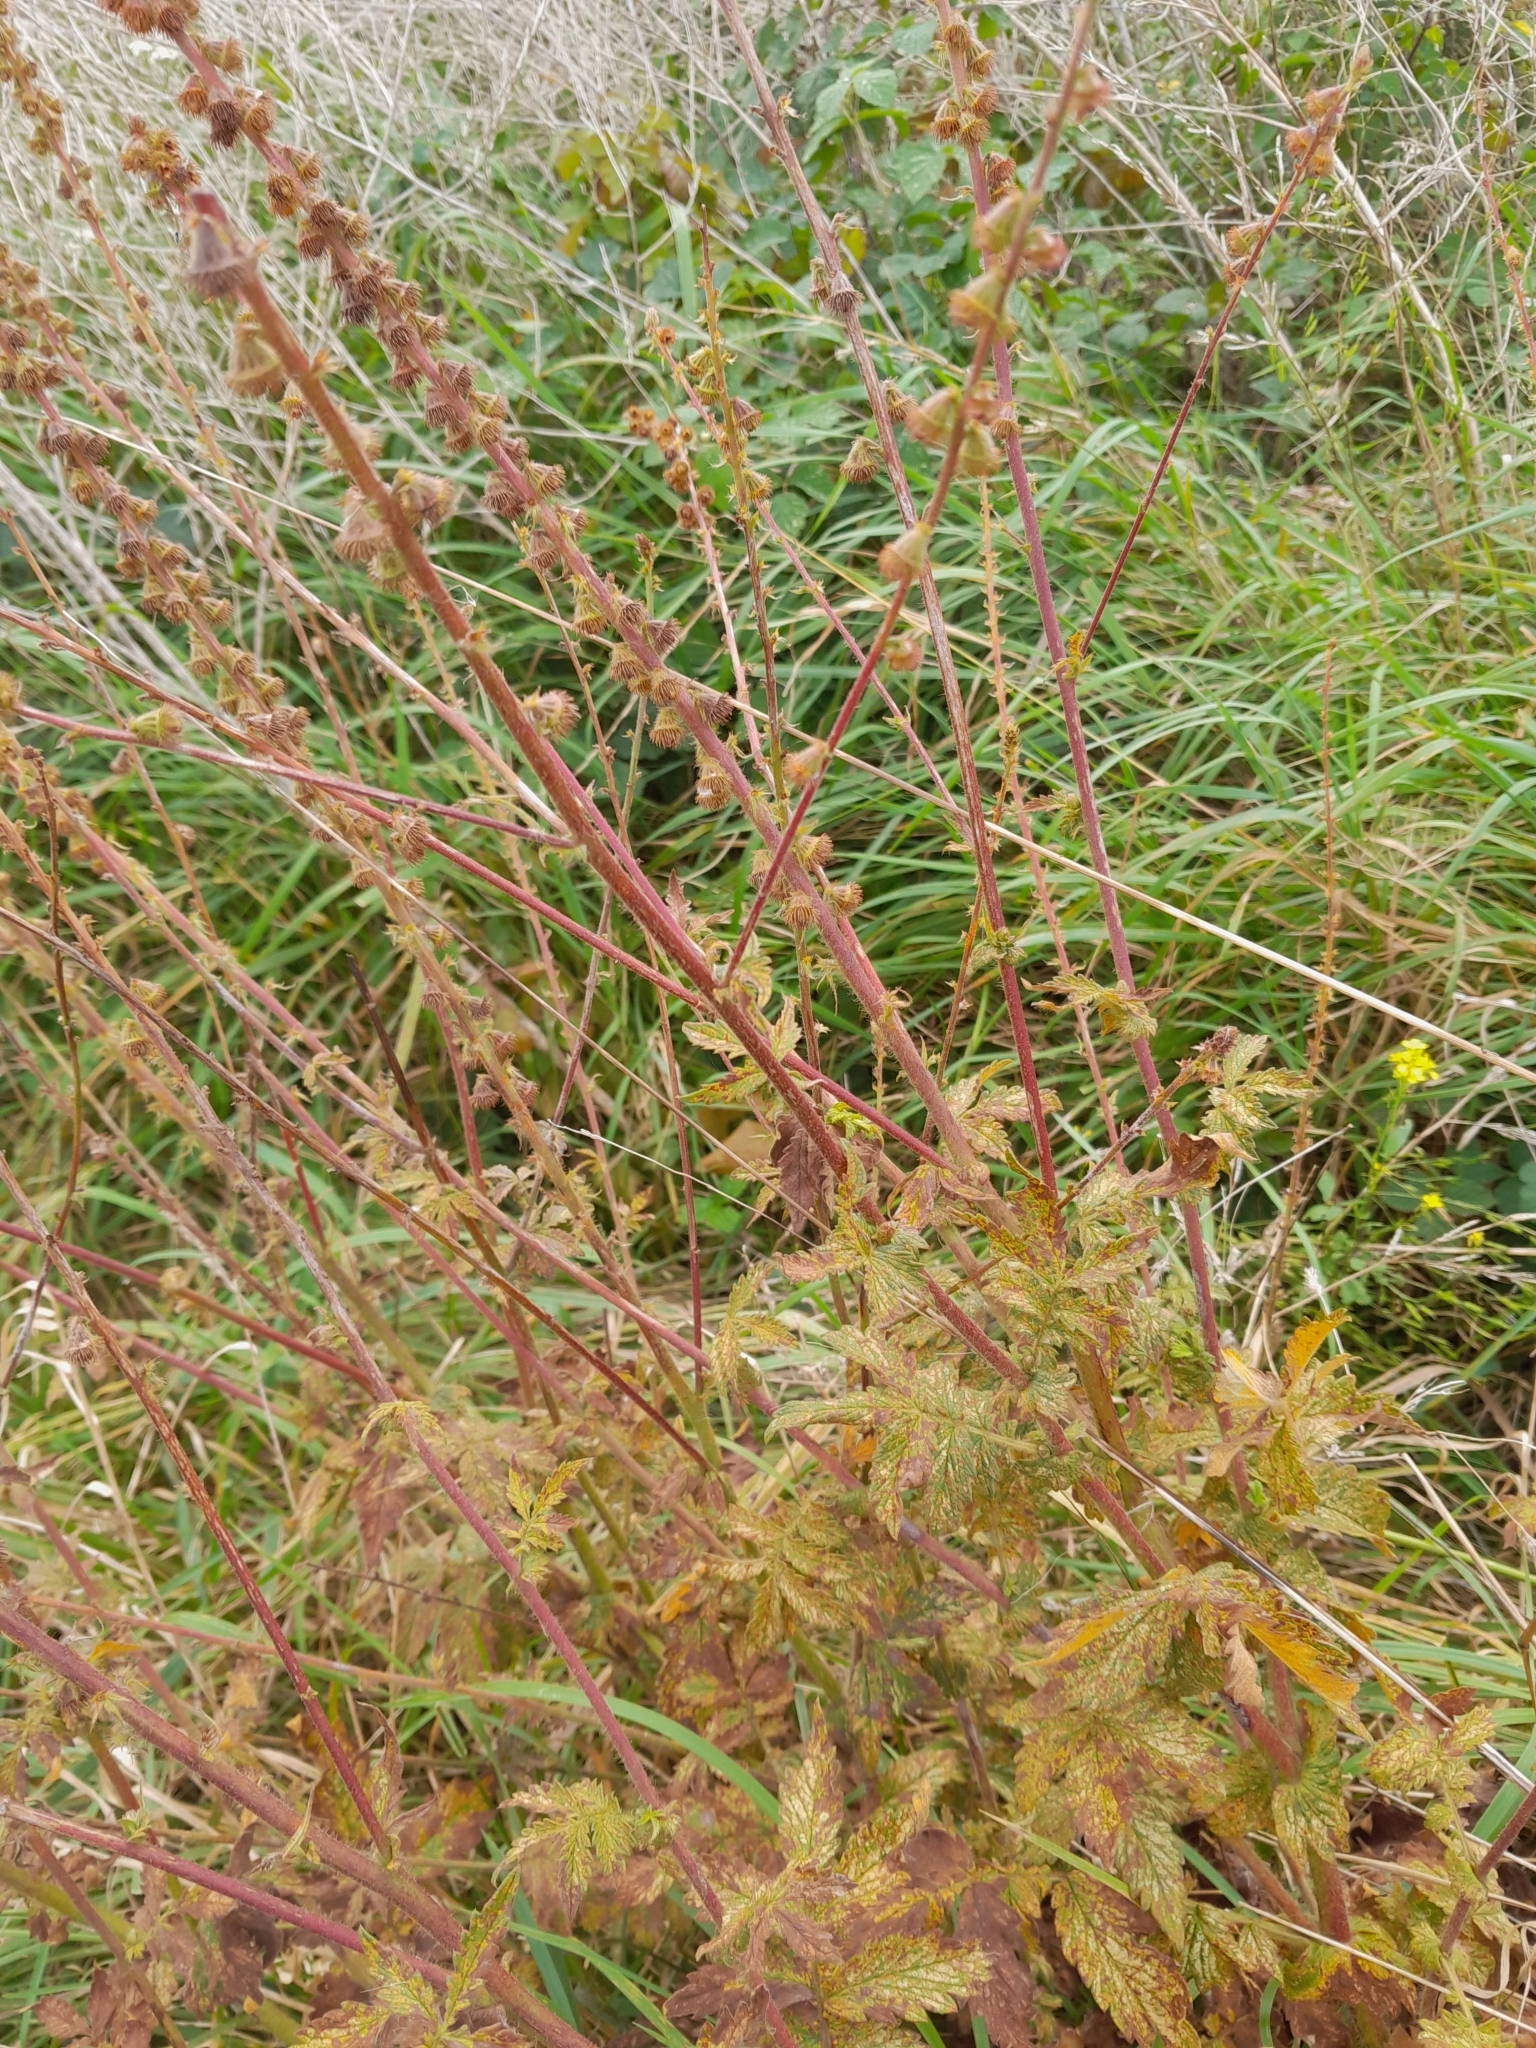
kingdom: Plantae
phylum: Tracheophyta
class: Magnoliopsida
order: Rosales
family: Rosaceae
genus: Agrimonia
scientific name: Agrimonia eupatoria
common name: Agrimony
